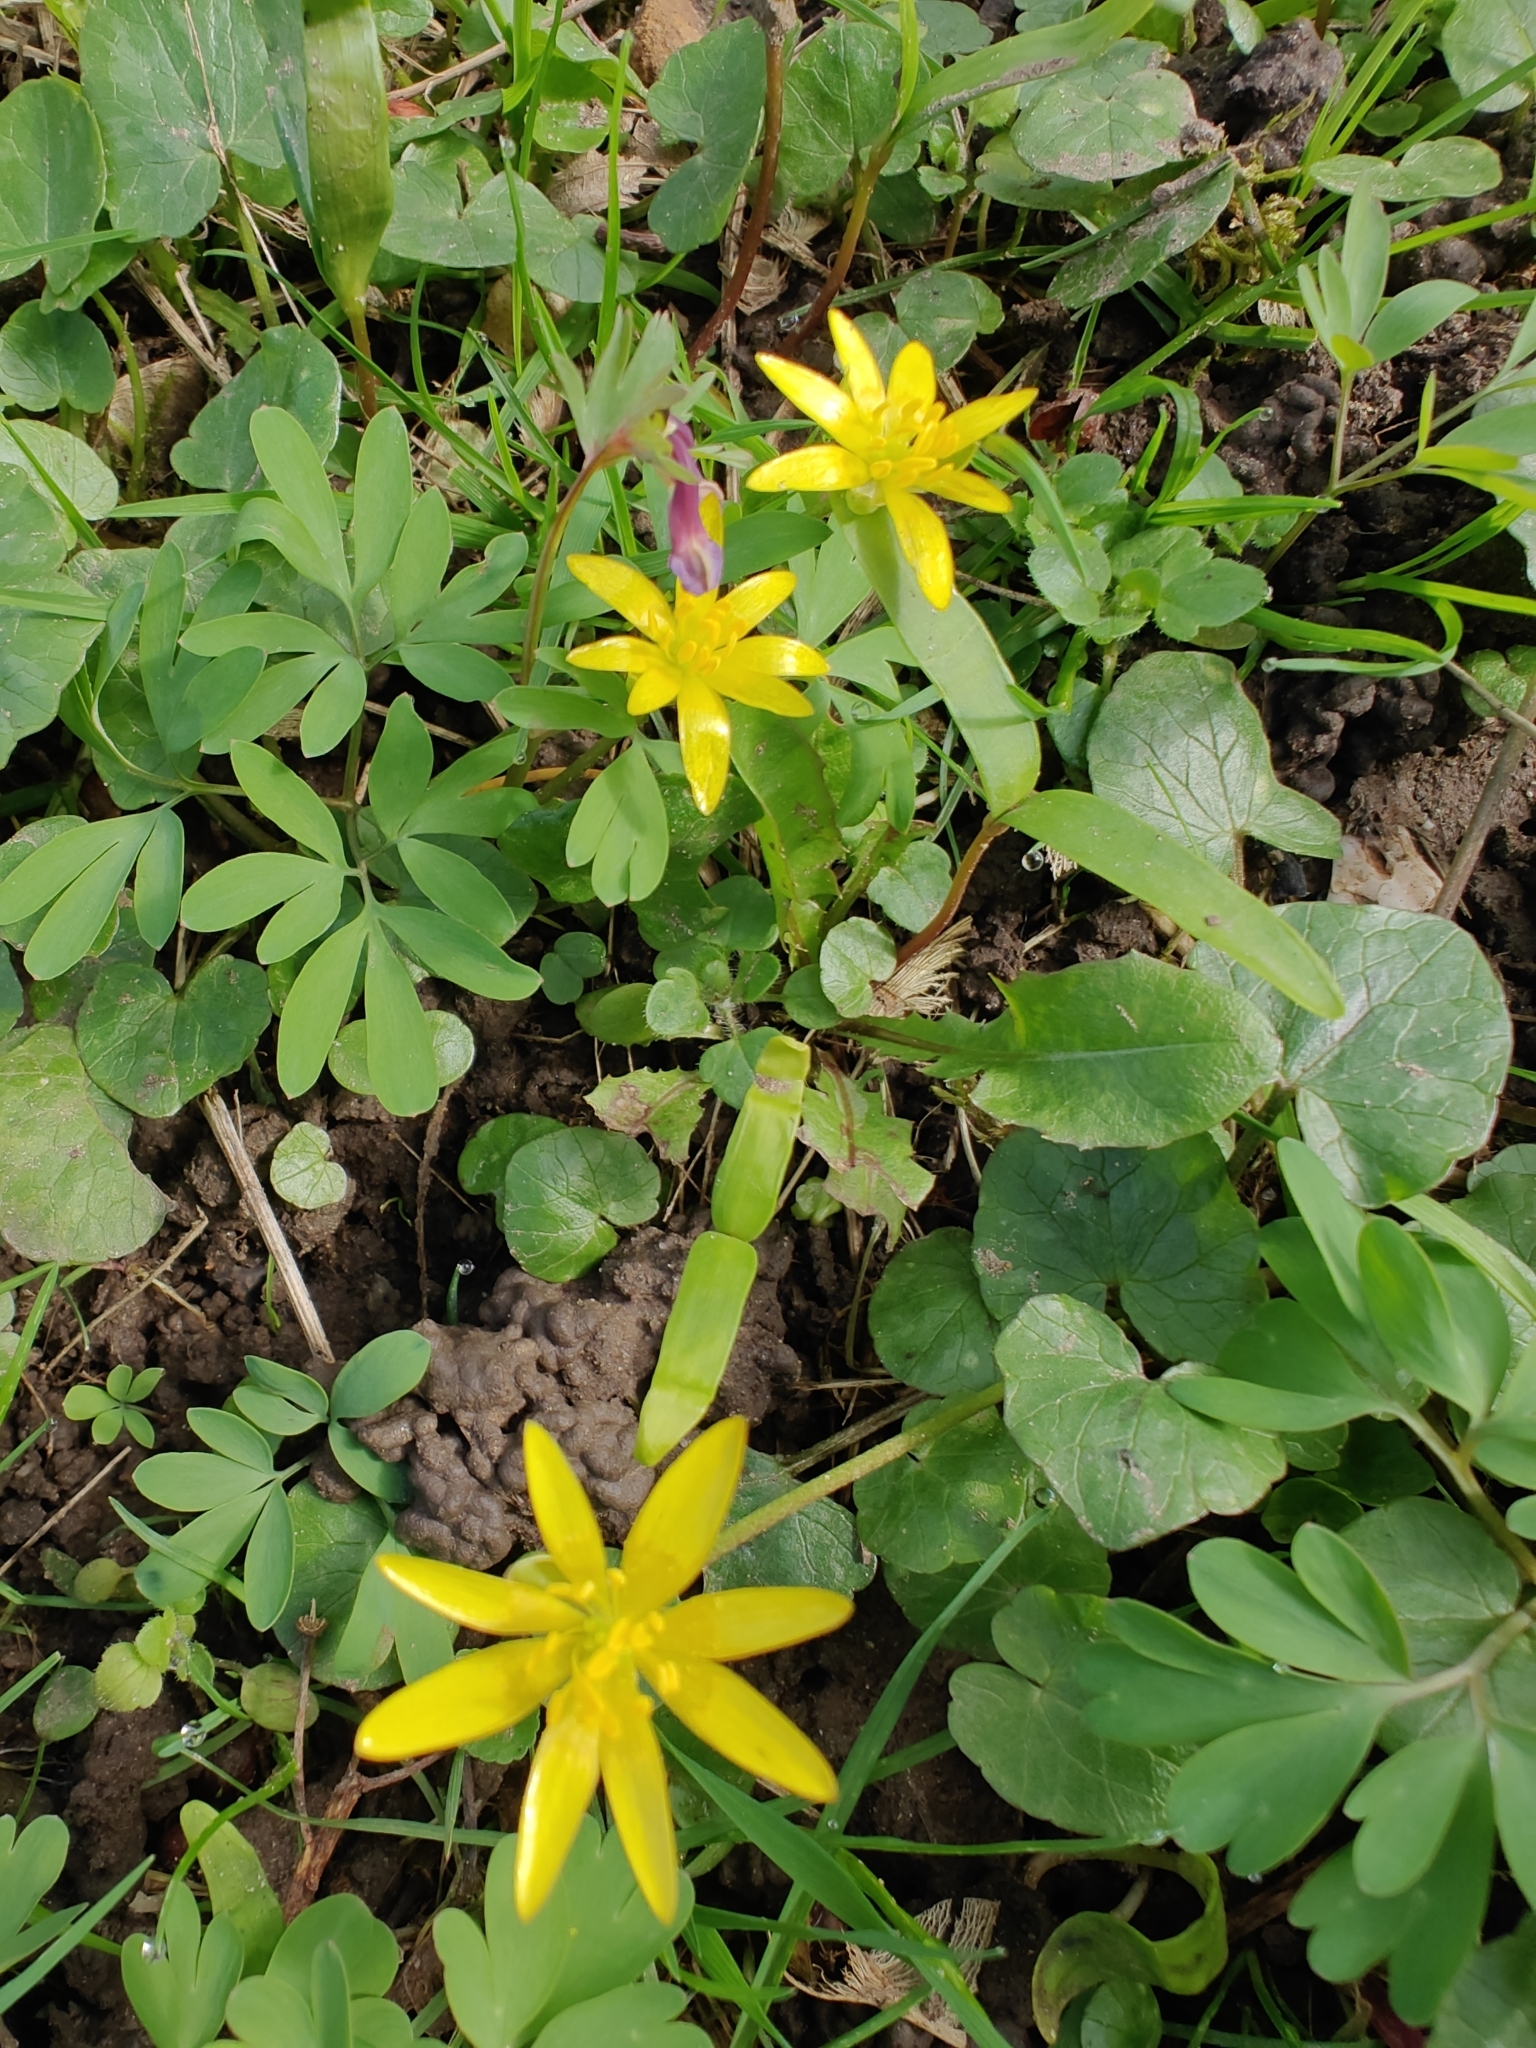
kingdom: Plantae
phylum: Tracheophyta
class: Magnoliopsida
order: Ranunculales
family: Ranunculaceae
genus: Ficaria
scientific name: Ficaria verna
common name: Lesser celandine
